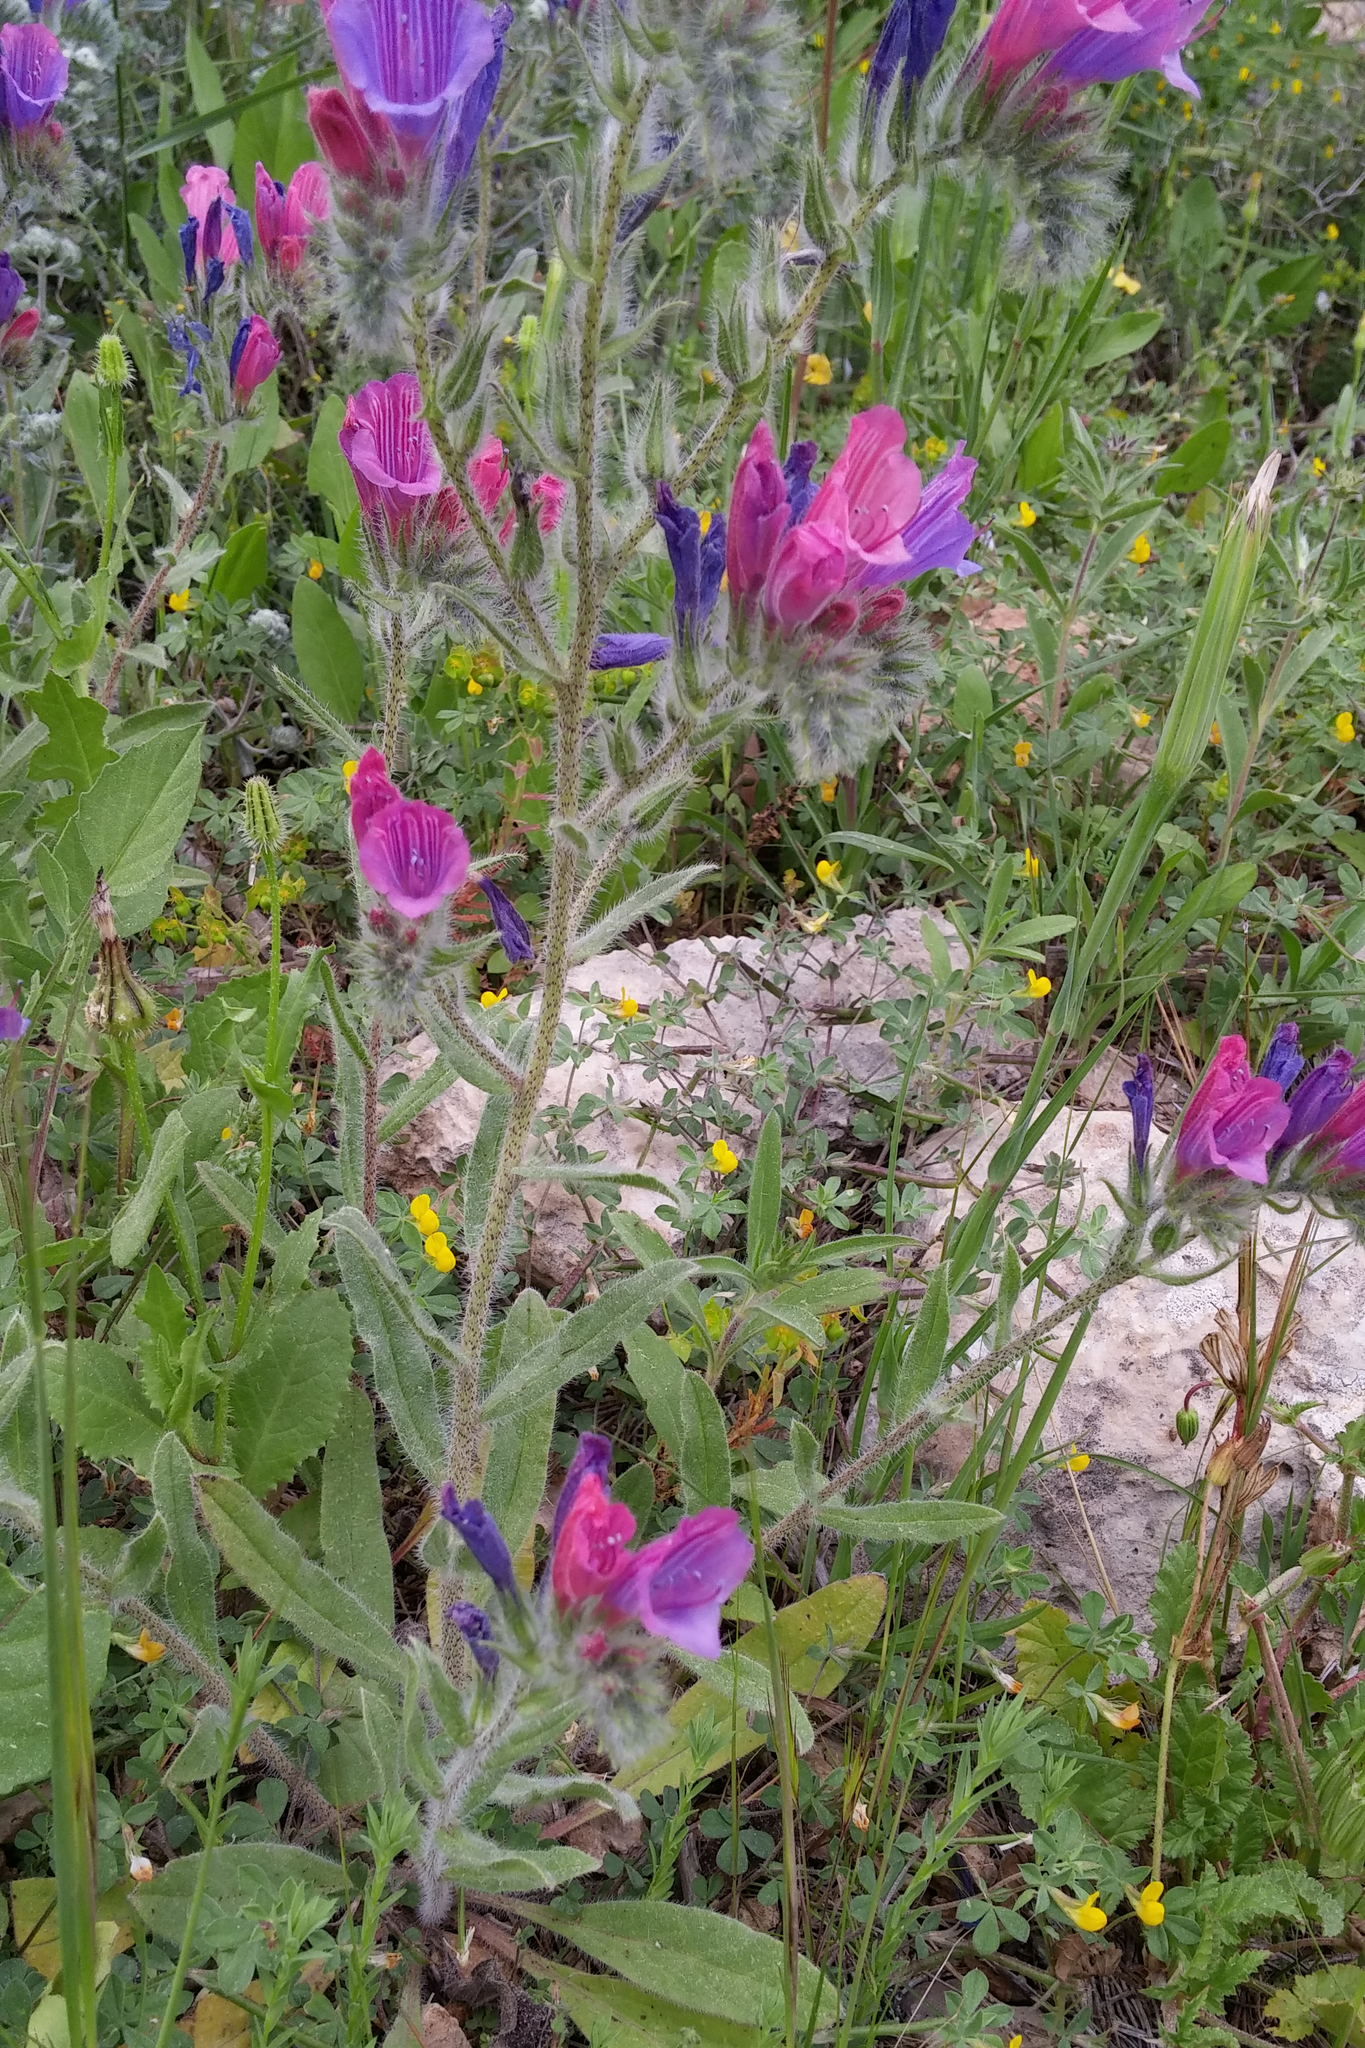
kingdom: Plantae
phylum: Tracheophyta
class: Magnoliopsida
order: Boraginales
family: Boraginaceae
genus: Echium
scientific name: Echium judaeum
